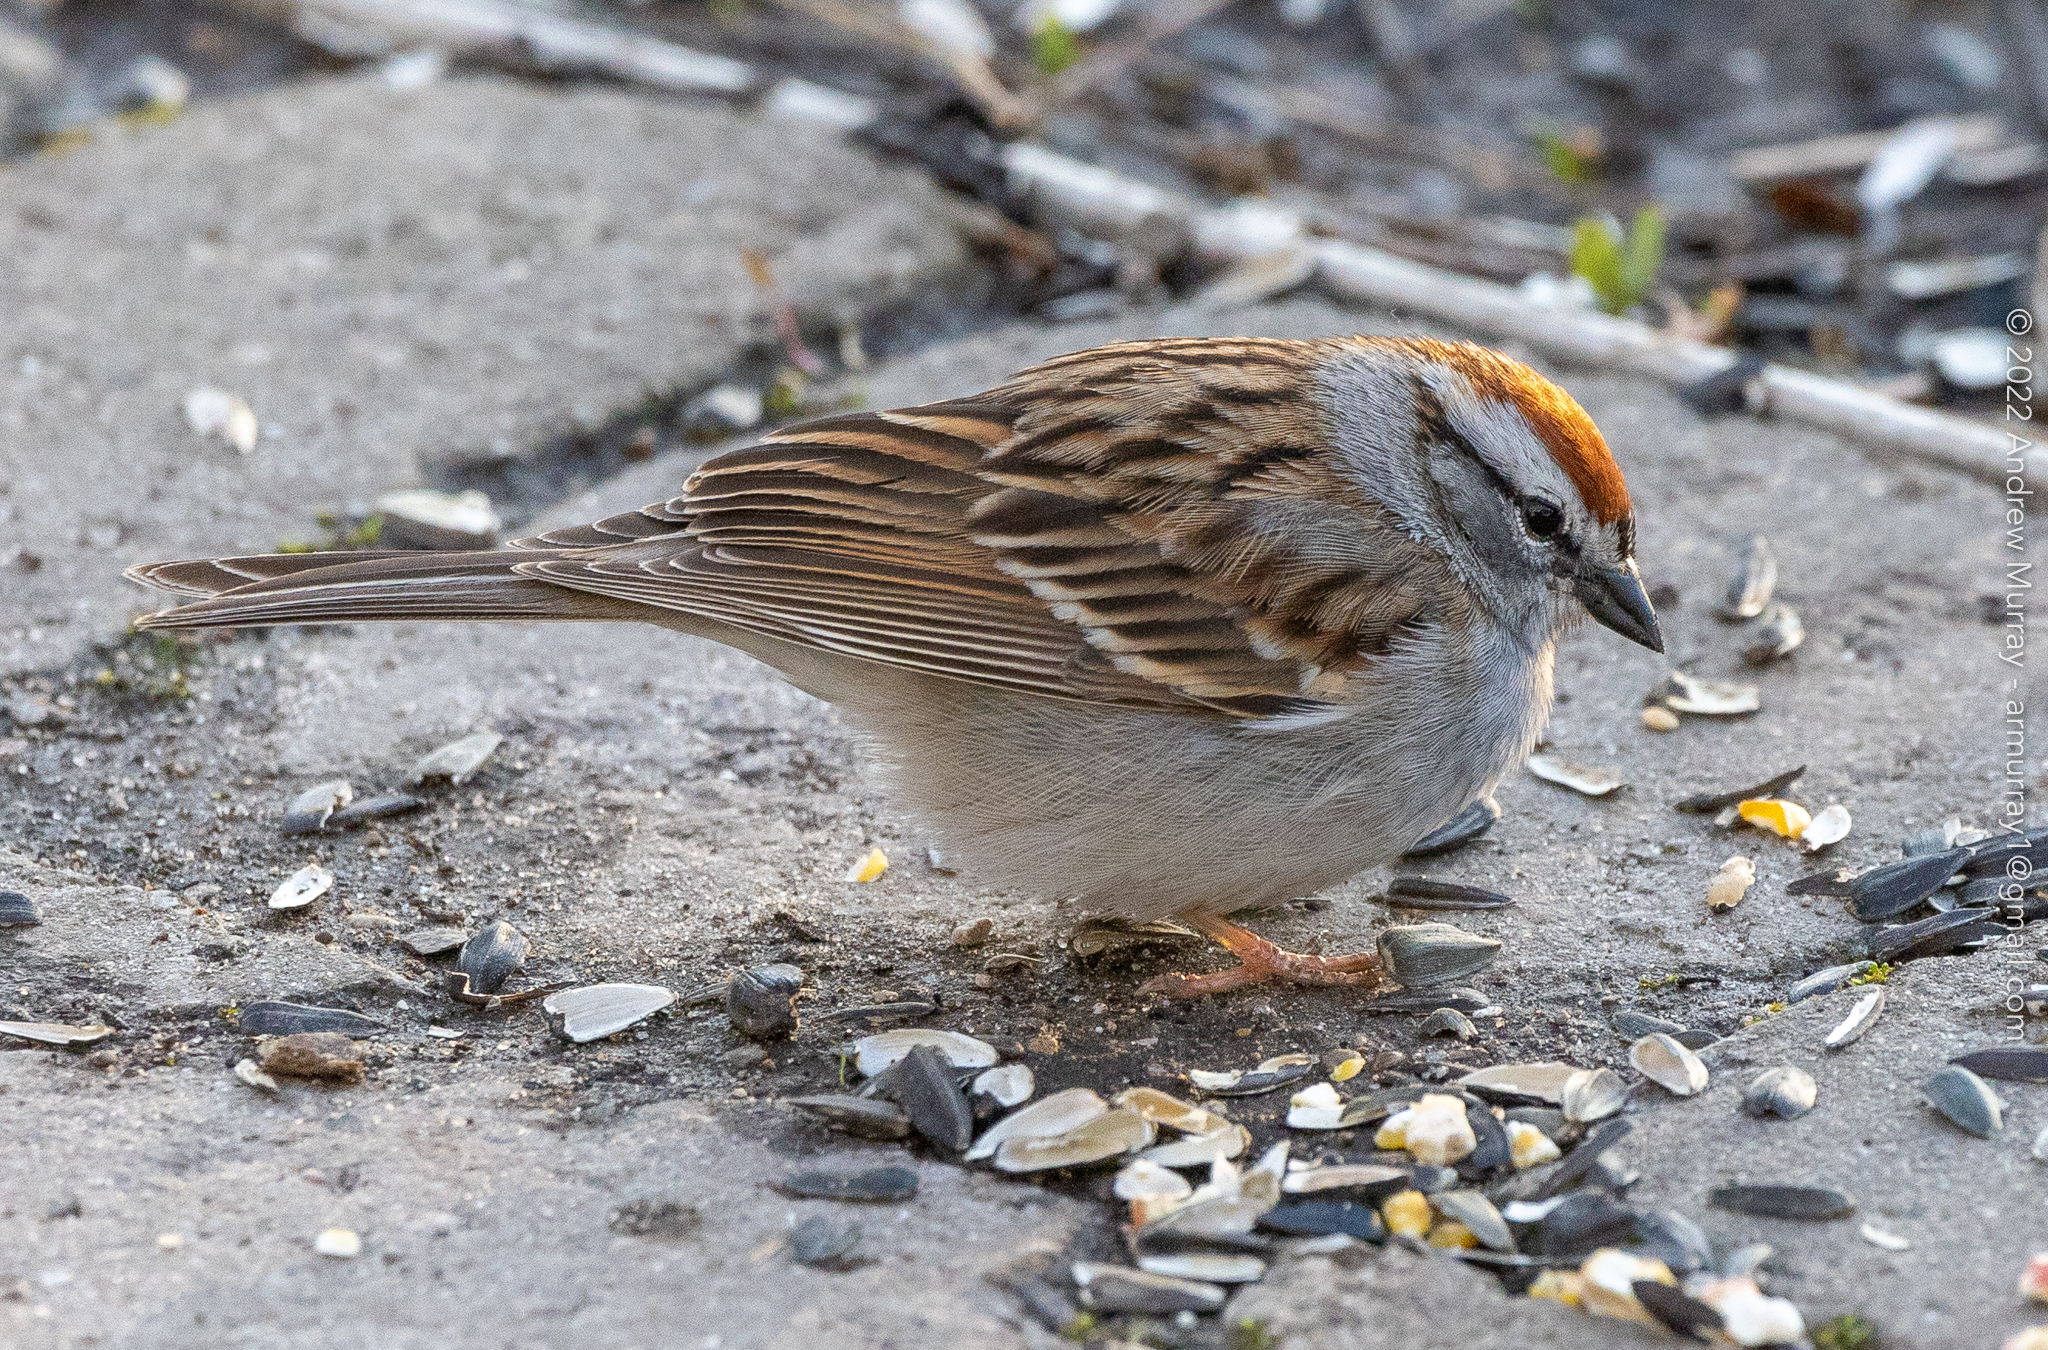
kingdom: Animalia
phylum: Chordata
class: Aves
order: Passeriformes
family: Passerellidae
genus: Spizella
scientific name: Spizella passerina
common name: Chipping sparrow
